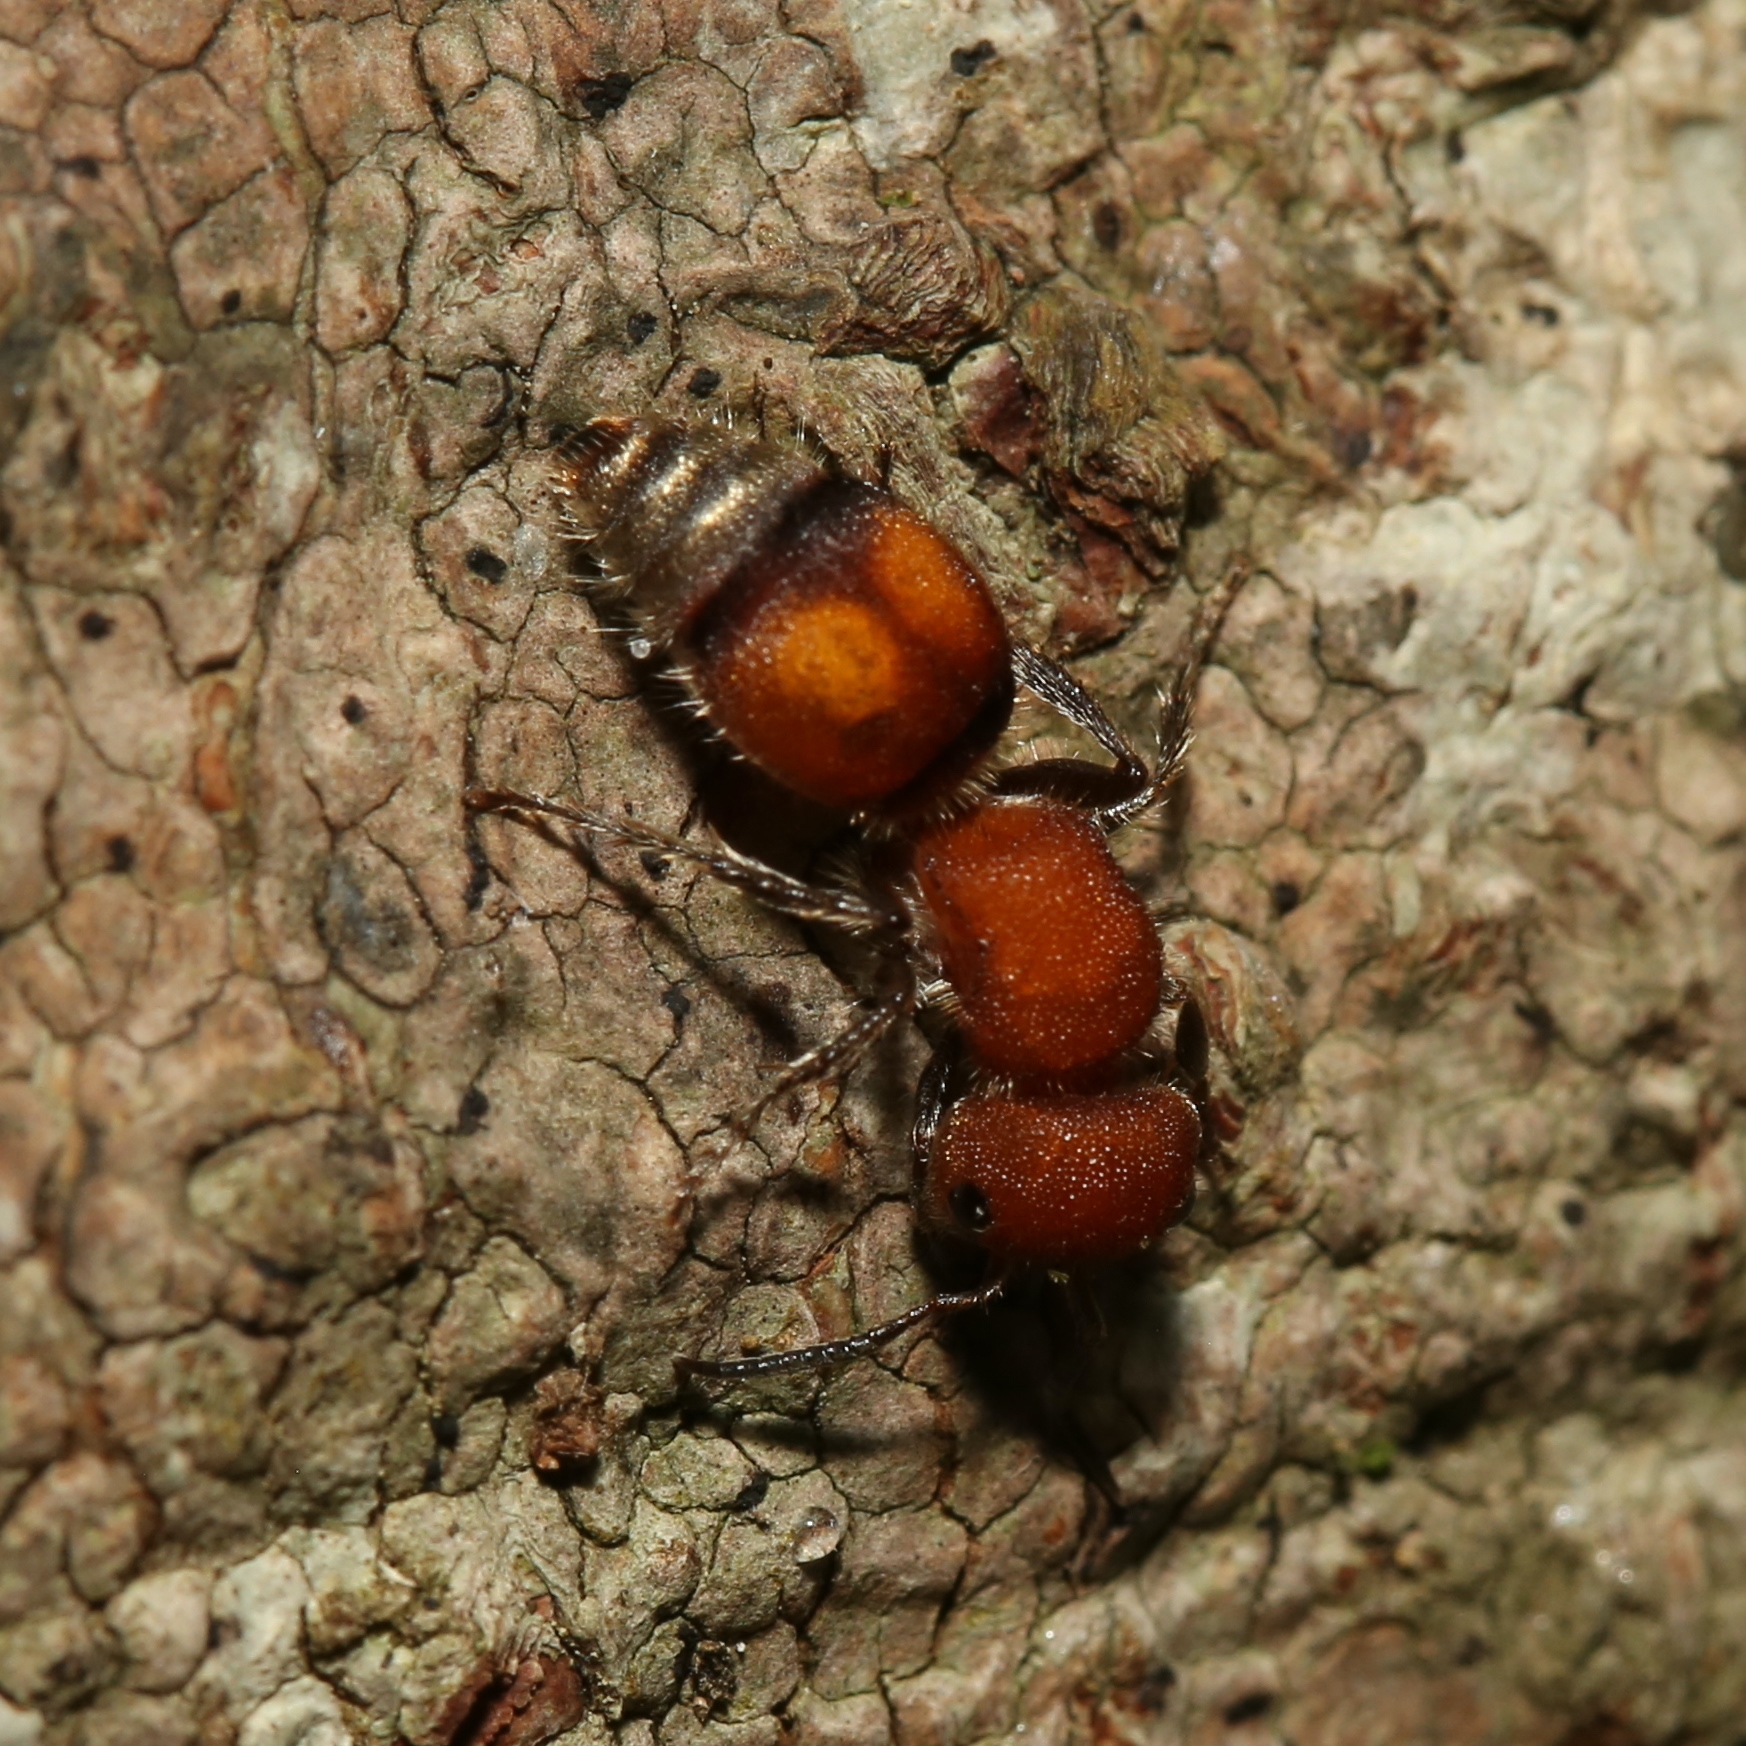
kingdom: Animalia
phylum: Arthropoda
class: Insecta
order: Hymenoptera
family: Mutillidae
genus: Pseudomethoca
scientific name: Pseudomethoca
